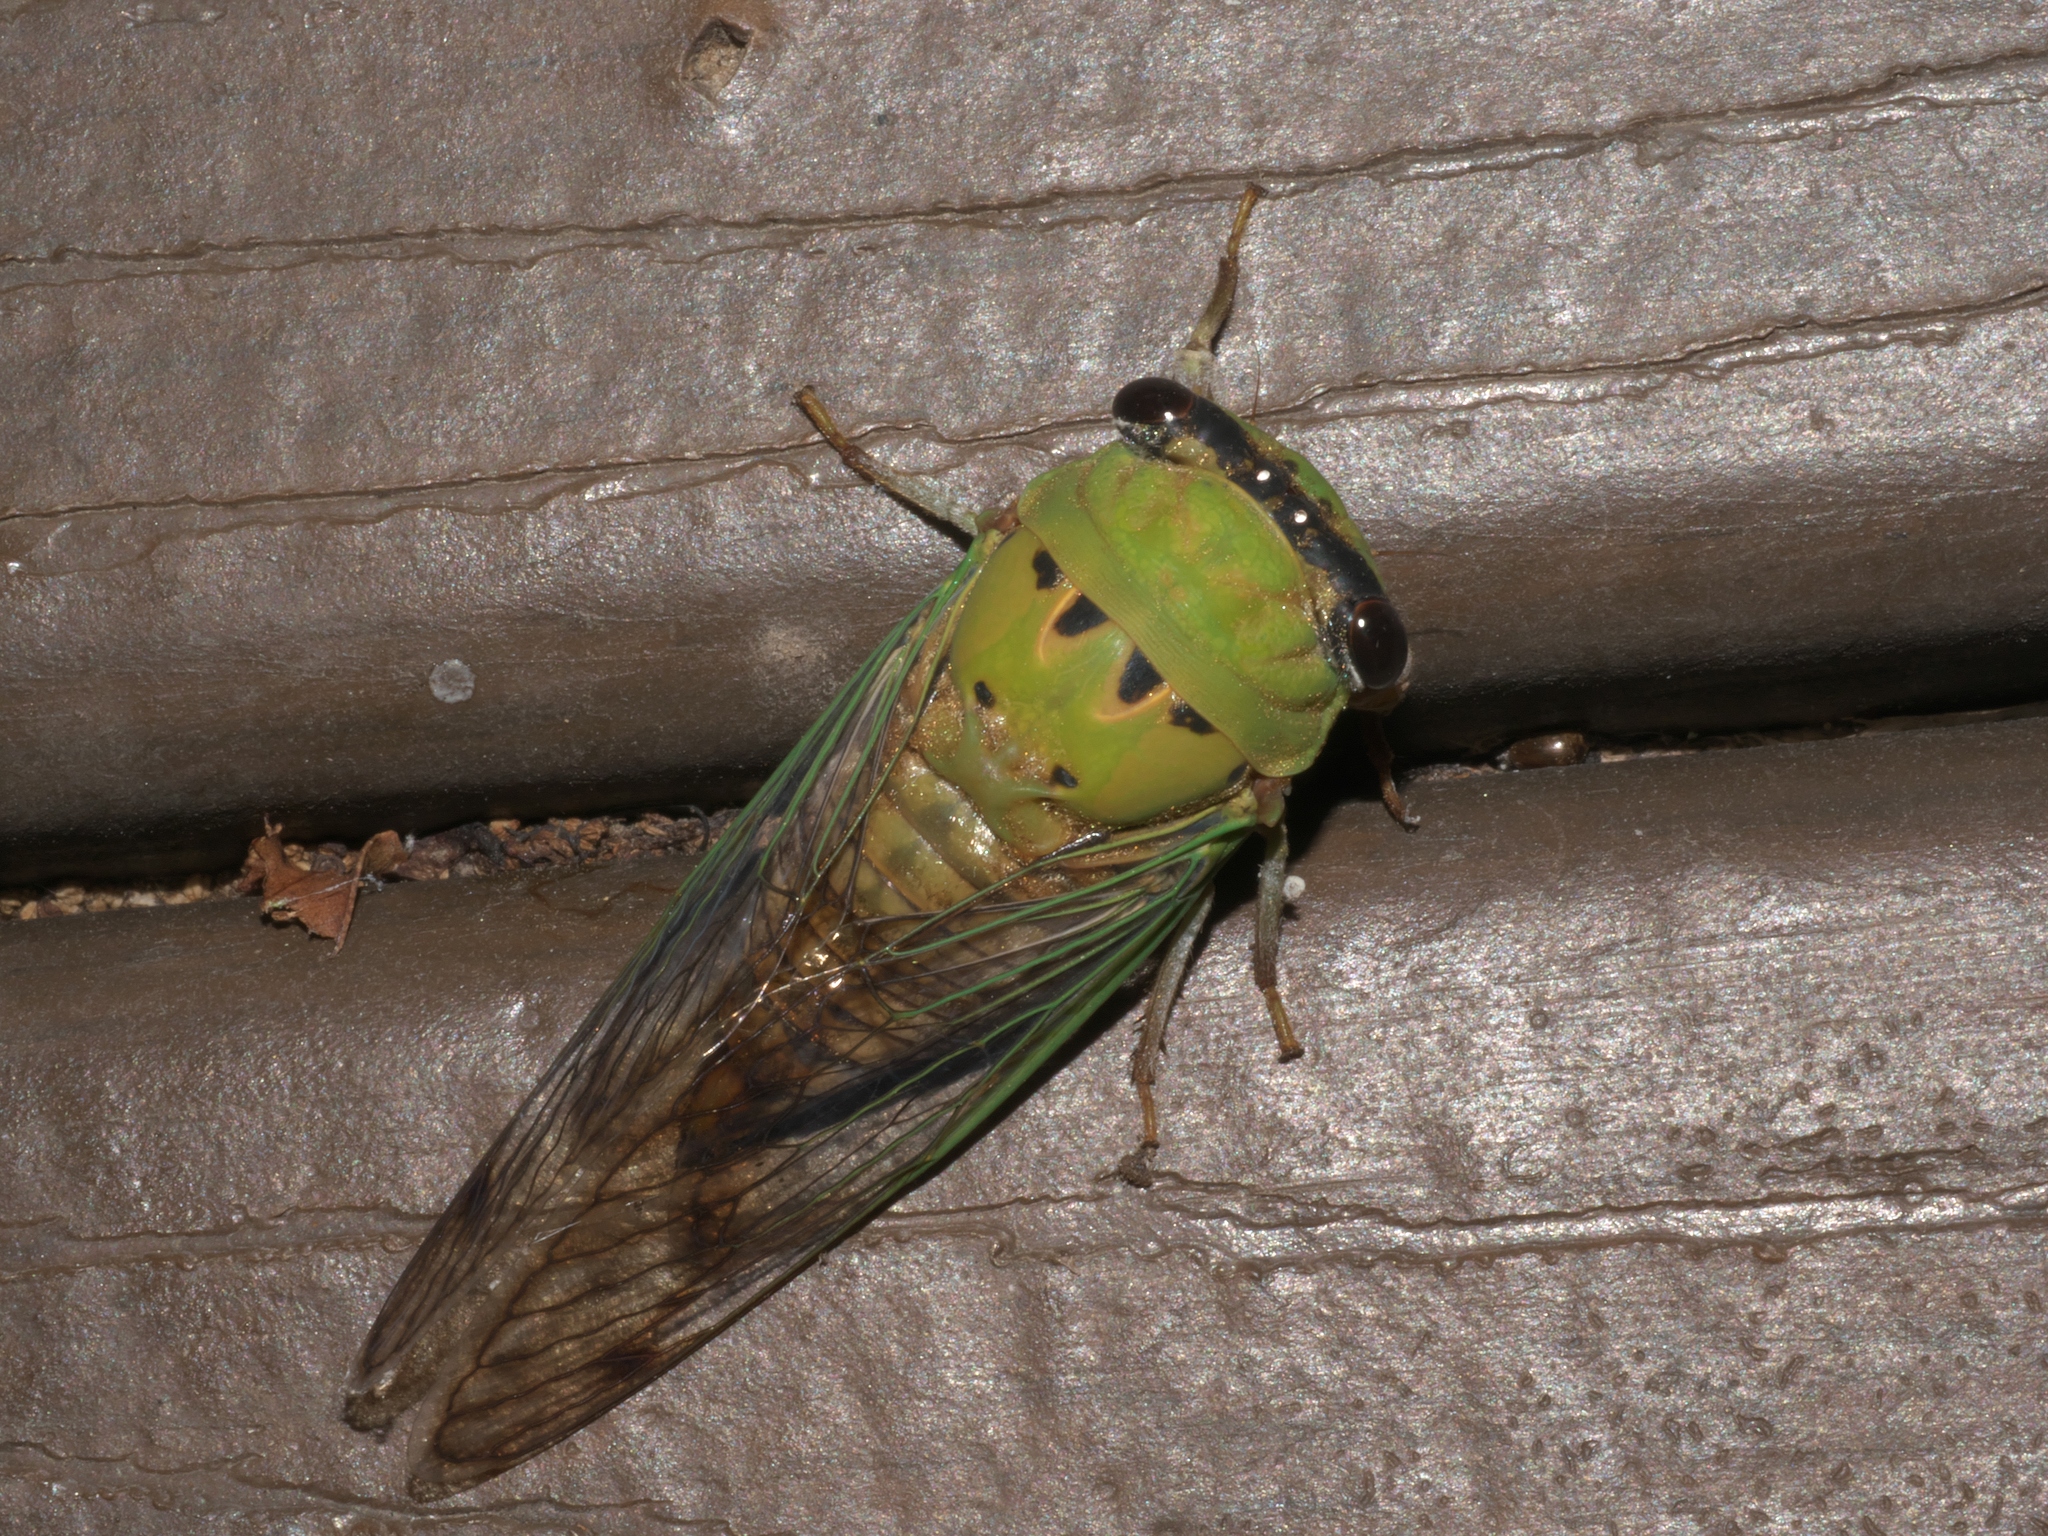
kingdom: Animalia
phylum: Arthropoda
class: Insecta
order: Hemiptera
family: Cicadidae
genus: Neotibicen
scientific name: Neotibicen superbus
